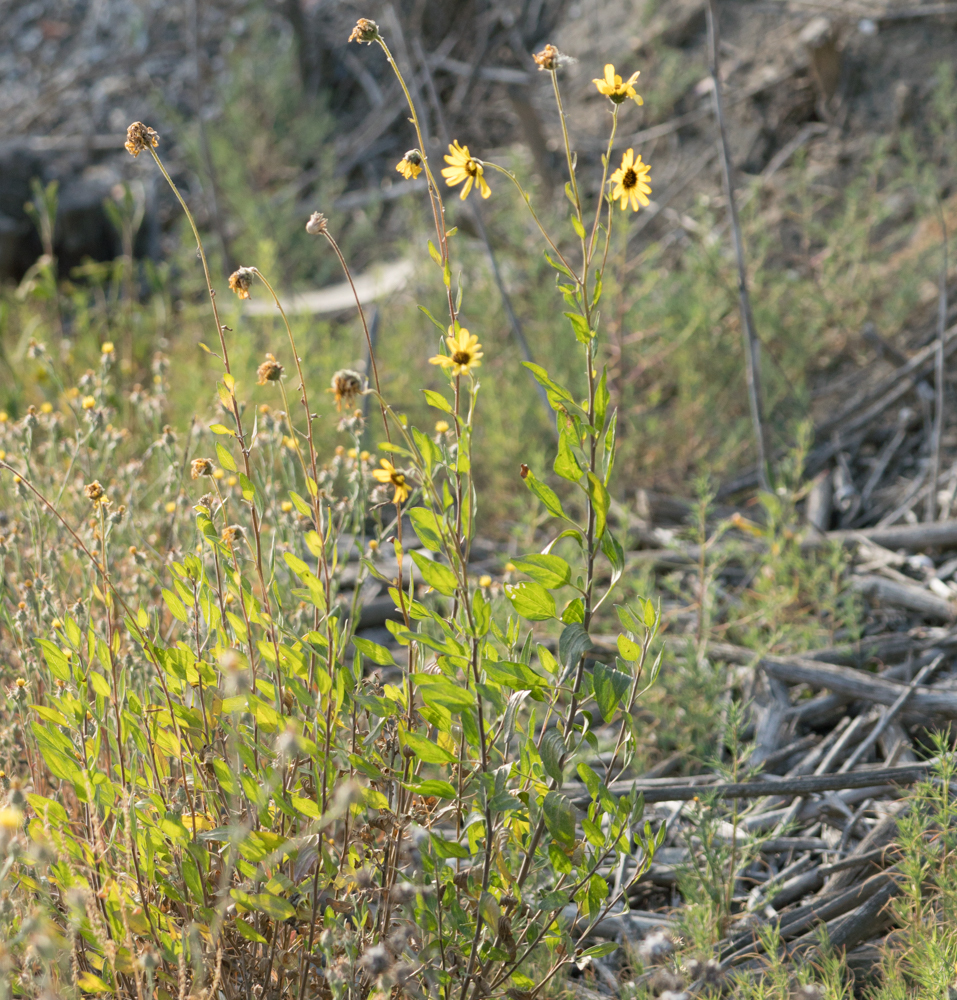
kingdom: Plantae
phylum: Tracheophyta
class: Magnoliopsida
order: Asterales
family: Asteraceae
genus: Encelia
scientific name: Encelia californica
